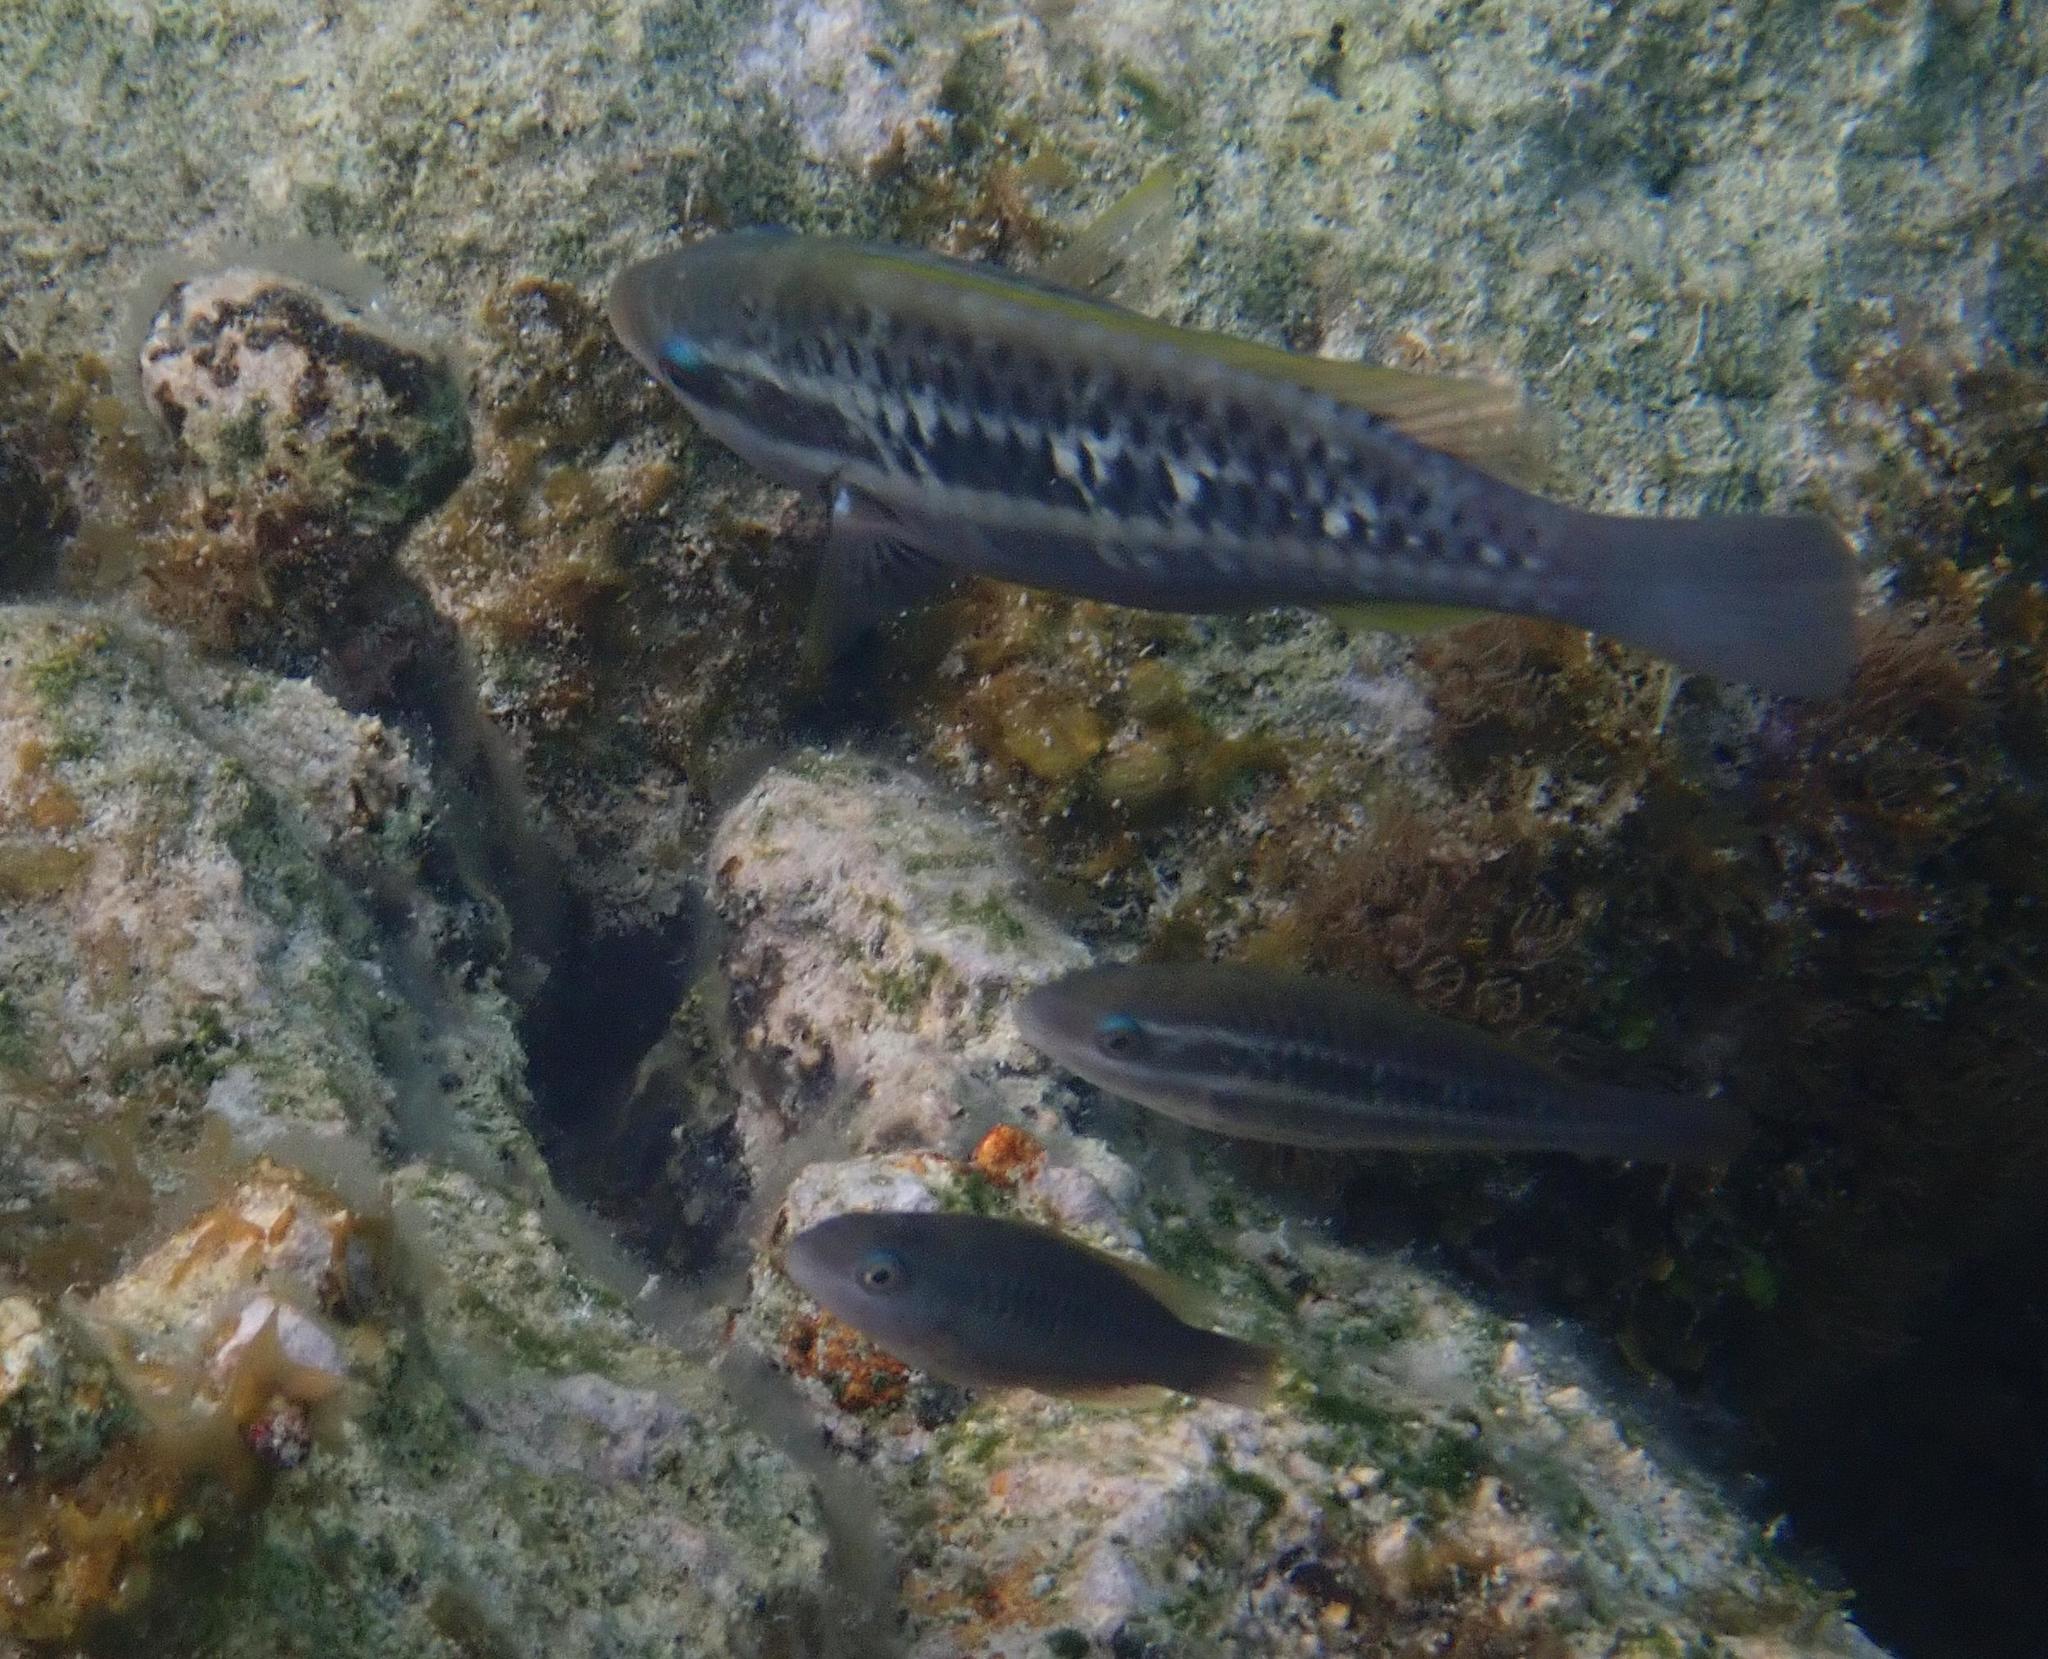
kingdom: Animalia
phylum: Chordata
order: Perciformes
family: Scaridae
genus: Scarus
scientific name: Scarus iseri
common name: Striped parrotfish
